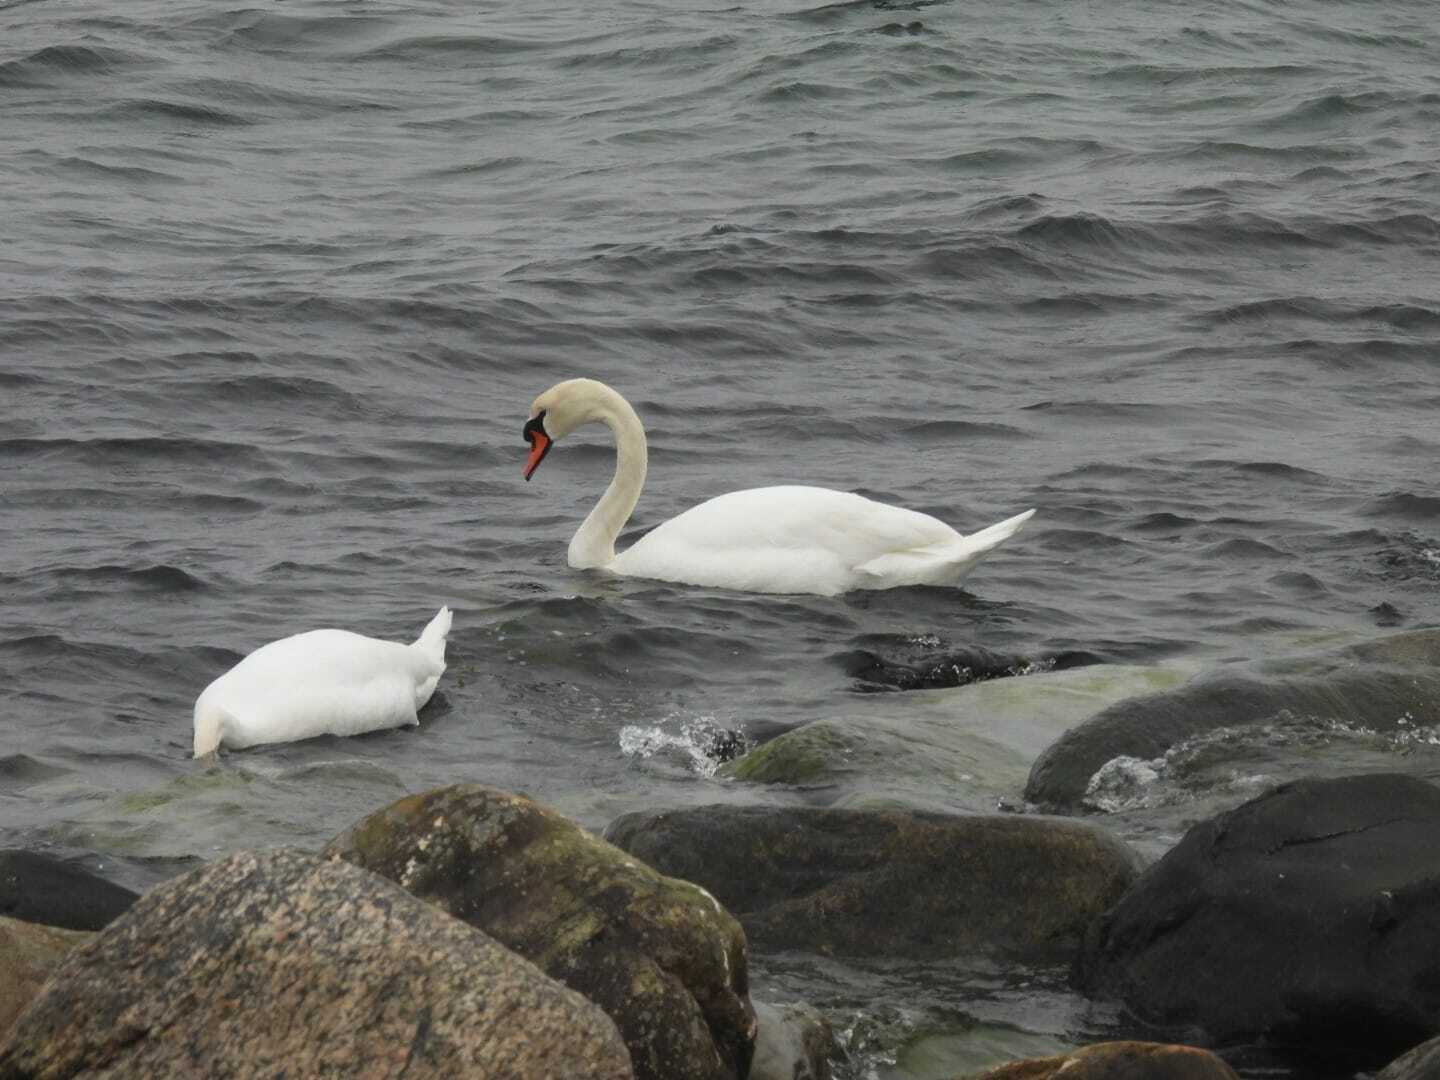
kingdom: Animalia
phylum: Chordata
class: Aves
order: Anseriformes
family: Anatidae
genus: Cygnus
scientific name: Cygnus olor
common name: Mute swan
